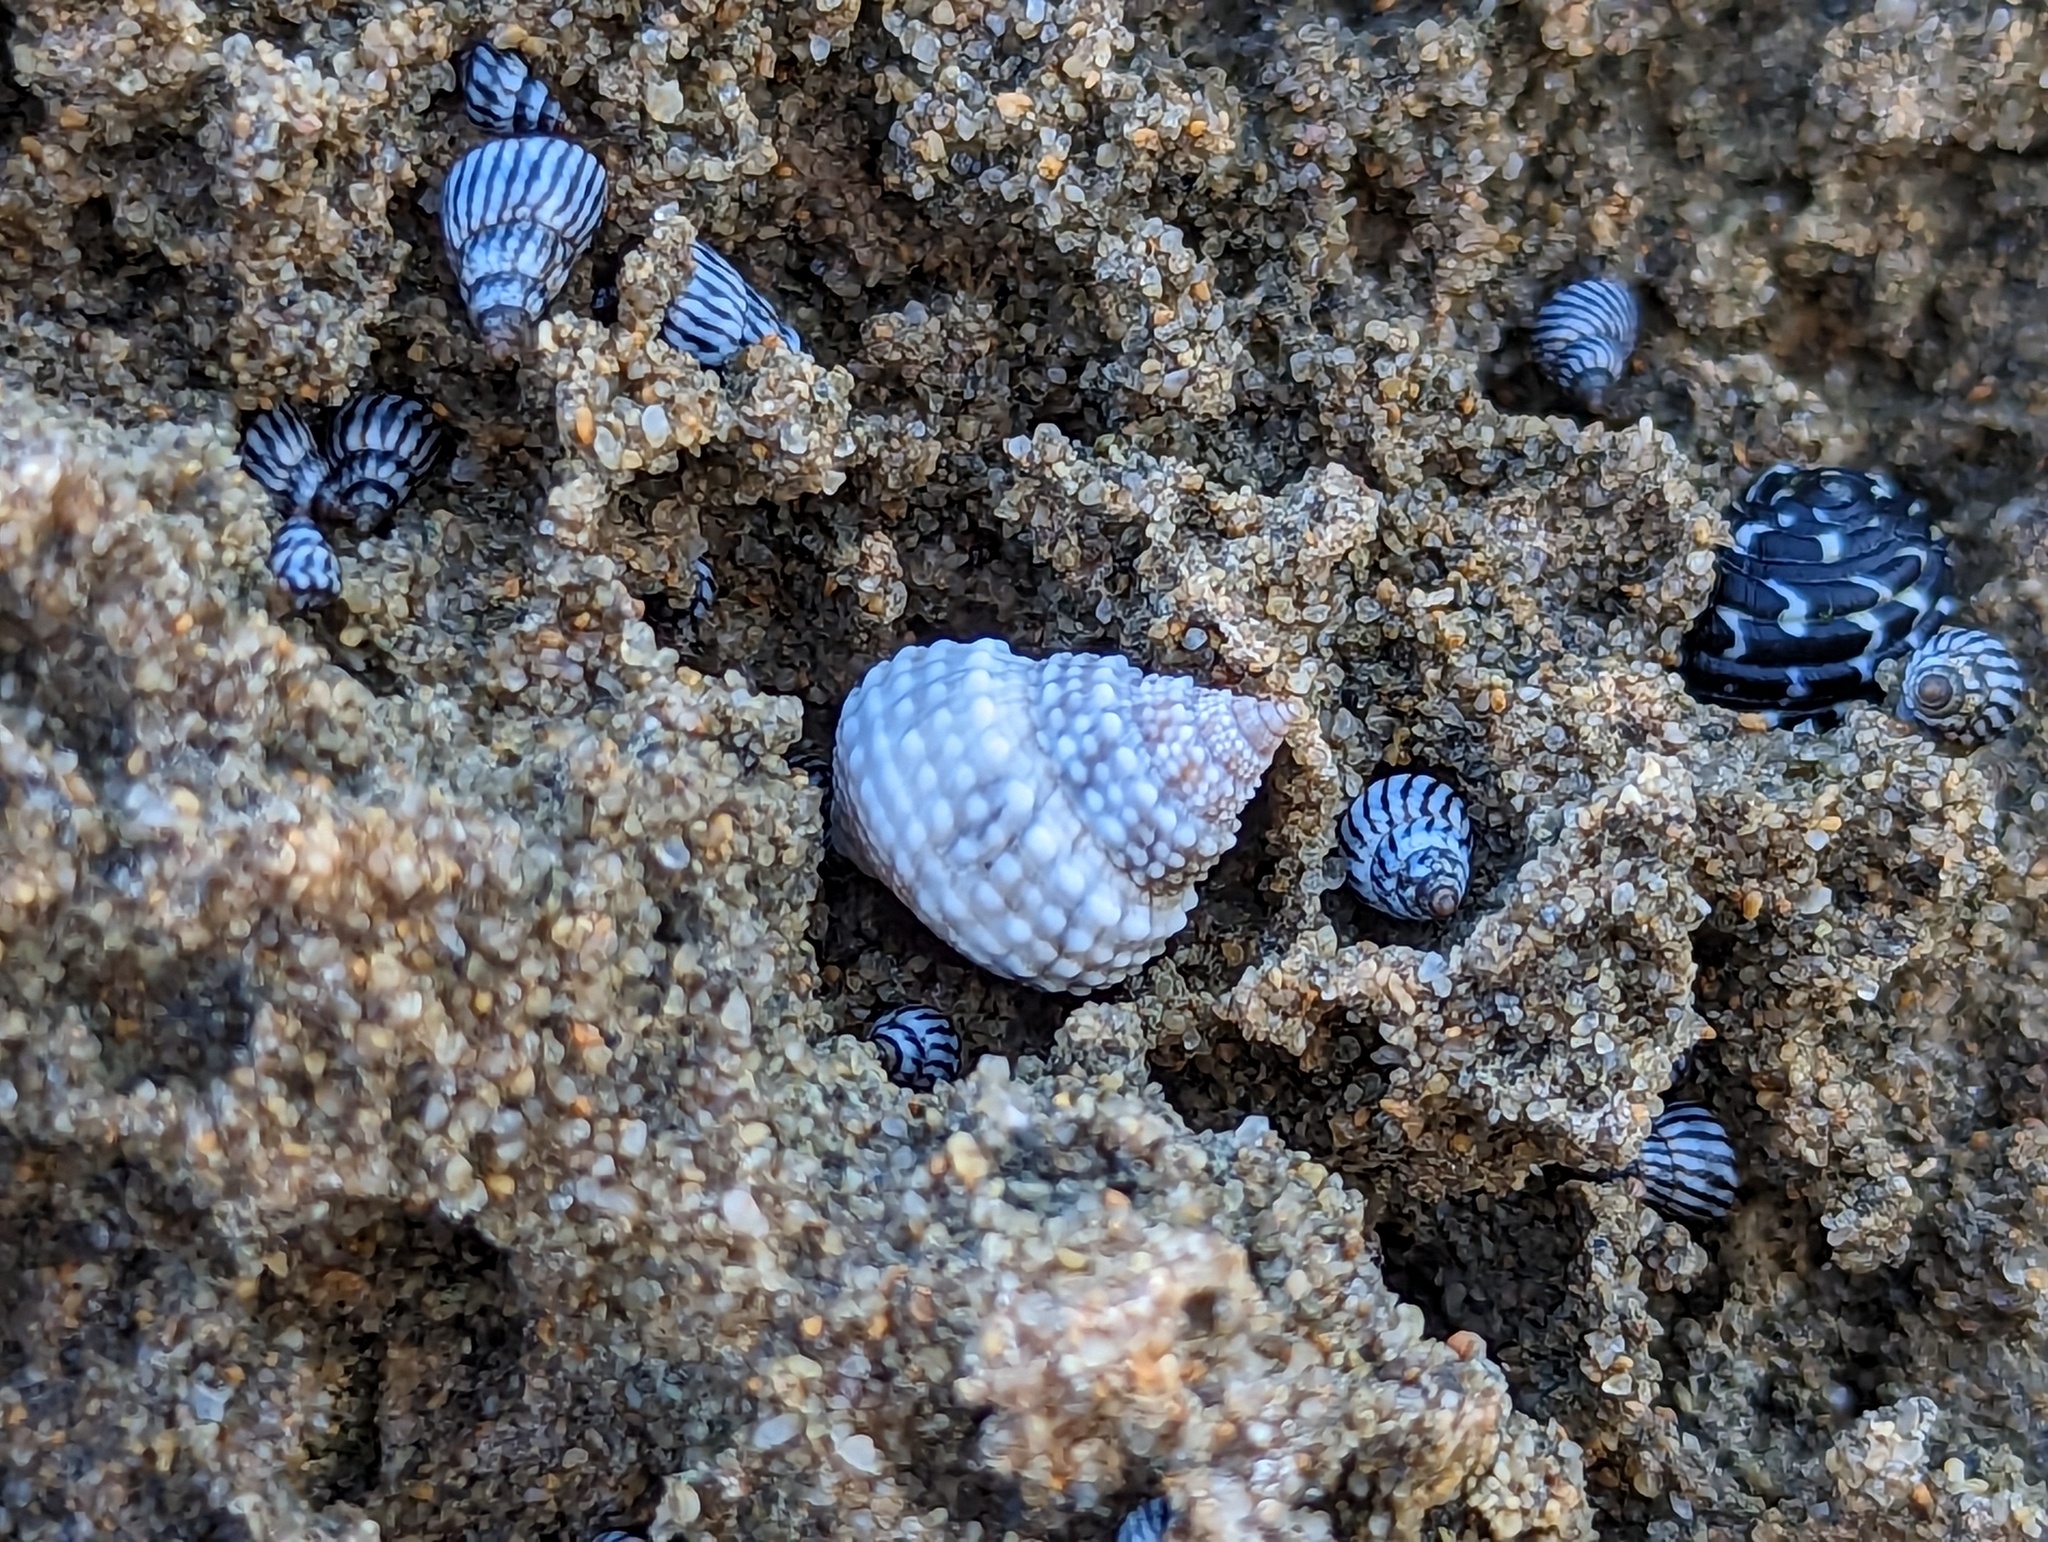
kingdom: Animalia
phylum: Mollusca
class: Gastropoda
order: Littorinimorpha
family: Littorinidae
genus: Cenchritis
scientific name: Cenchritis muricatus
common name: Beaded periwinkle
